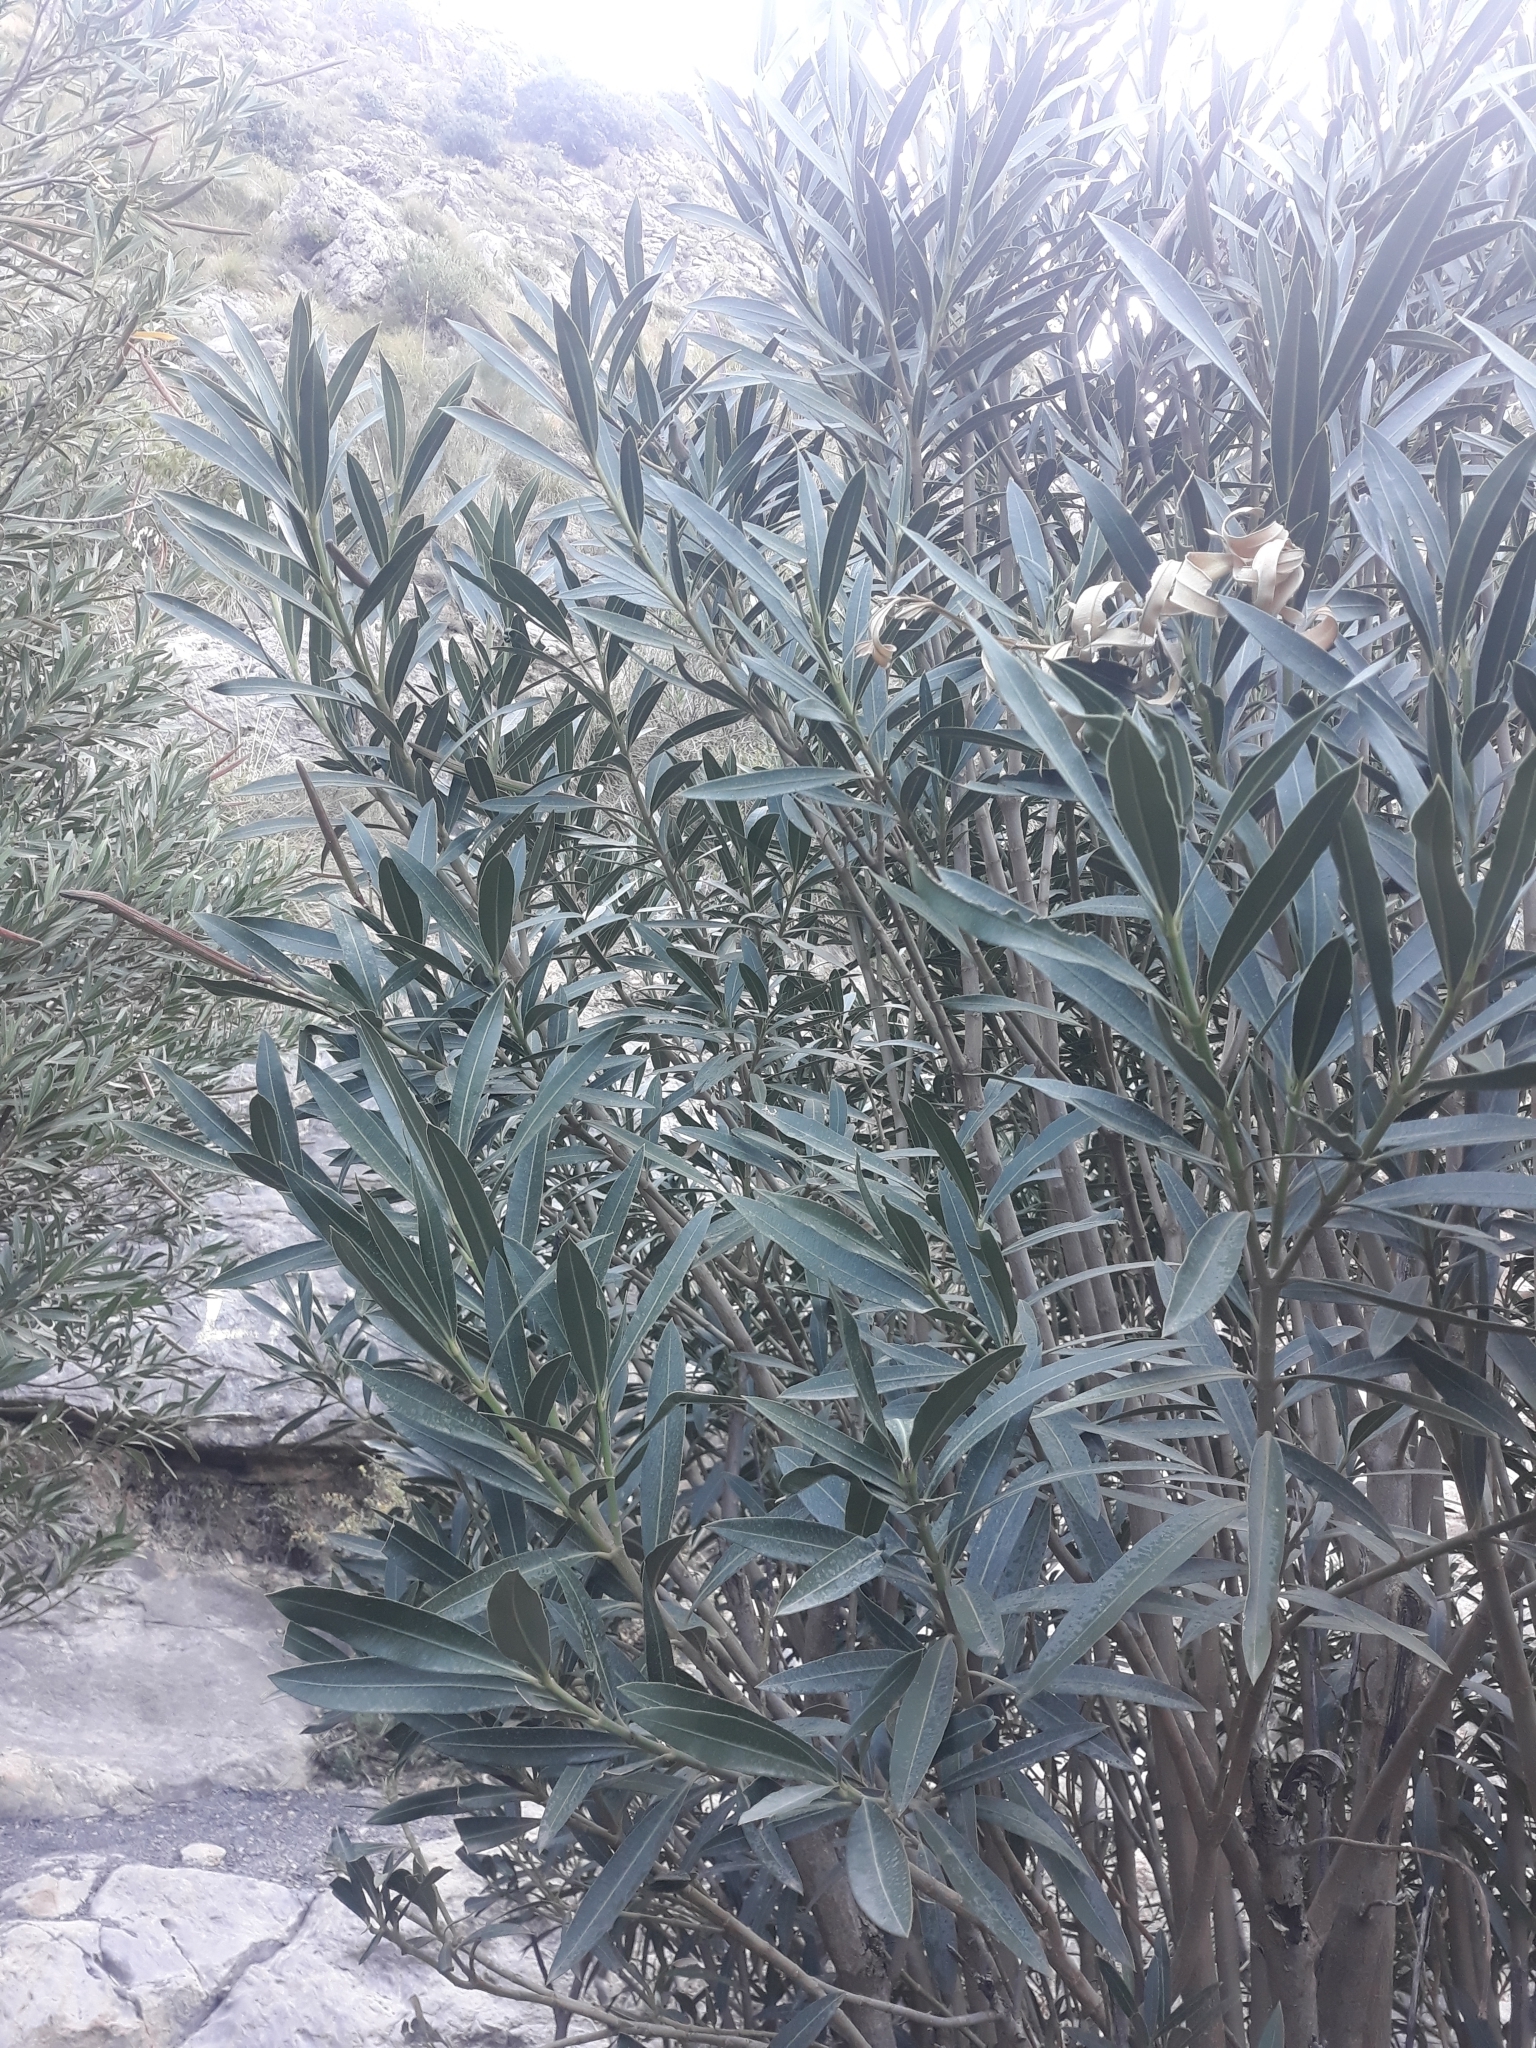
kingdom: Plantae
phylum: Tracheophyta
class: Magnoliopsida
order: Gentianales
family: Apocynaceae
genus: Nerium
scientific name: Nerium oleander
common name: Oleander
